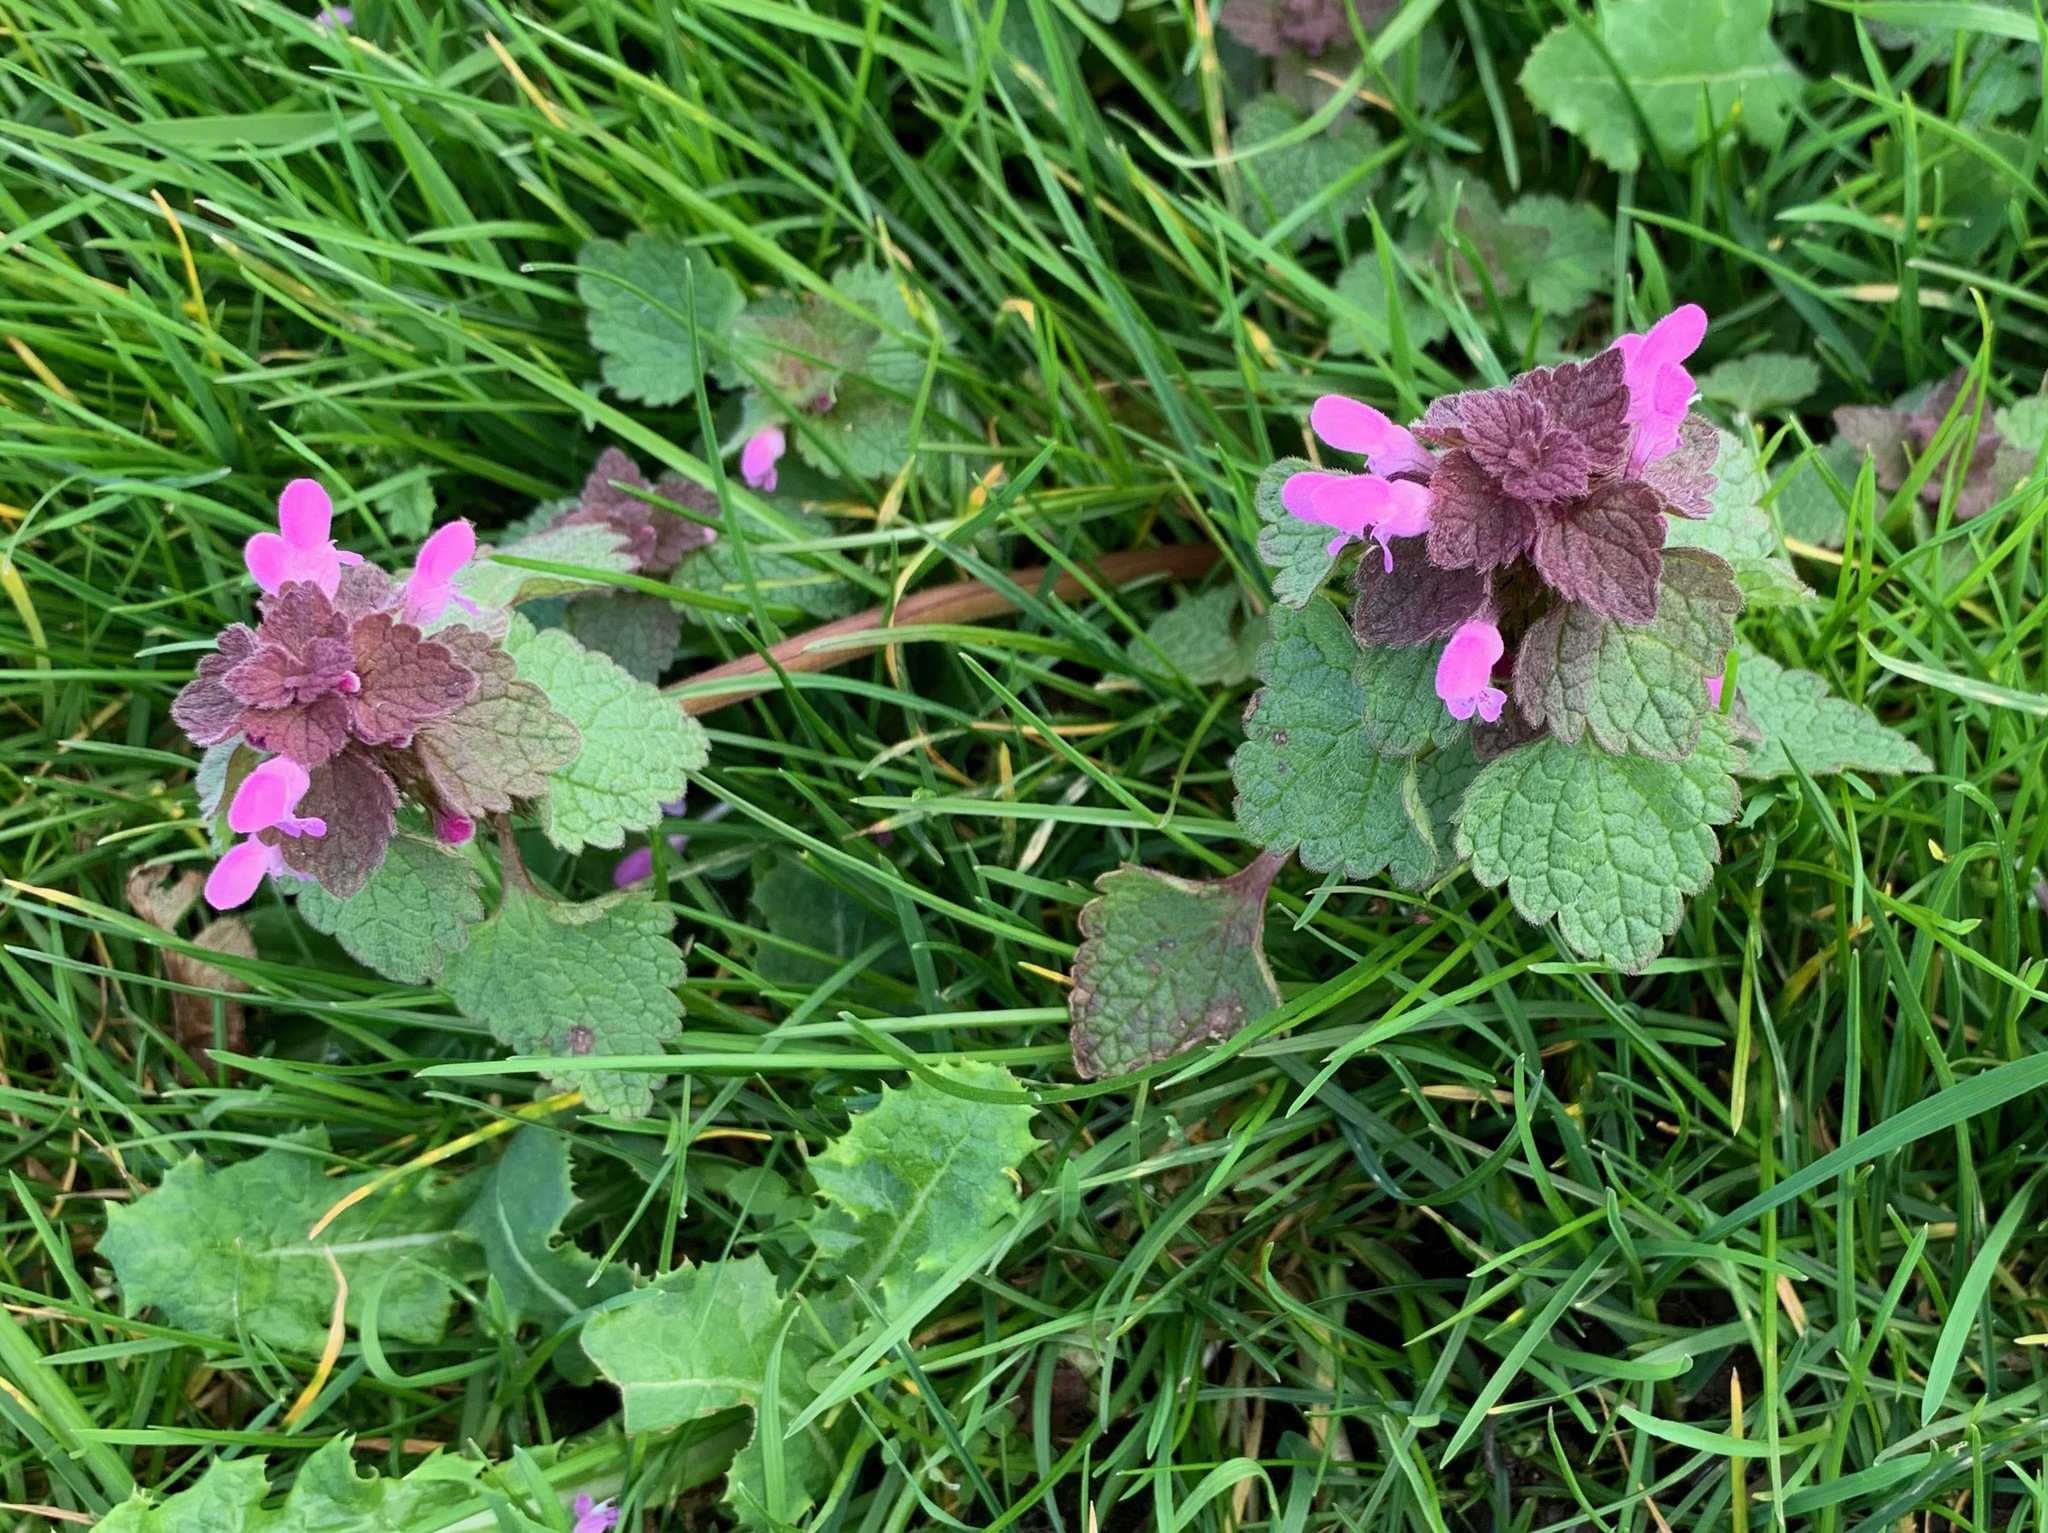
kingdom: Plantae
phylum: Tracheophyta
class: Magnoliopsida
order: Lamiales
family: Lamiaceae
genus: Lamium
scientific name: Lamium purpureum
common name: Red dead-nettle
